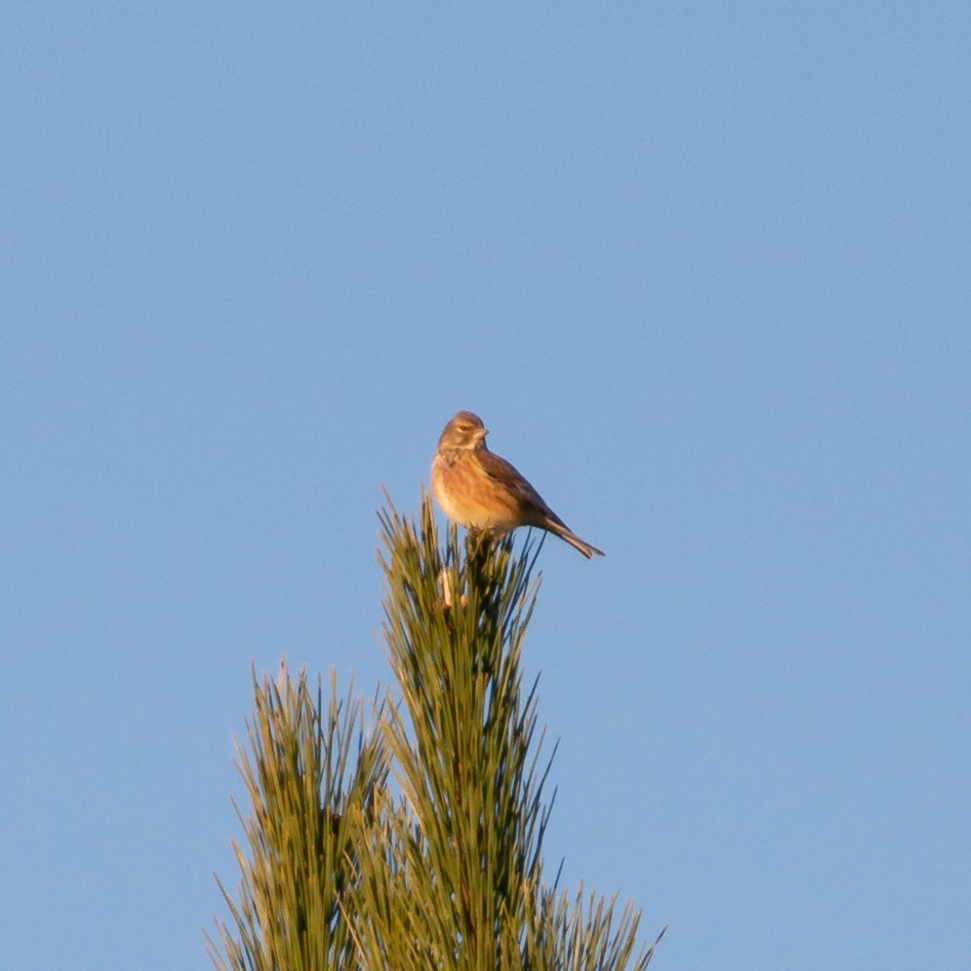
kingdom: Animalia
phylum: Chordata
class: Aves
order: Passeriformes
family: Fringillidae
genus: Linaria
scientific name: Linaria cannabina
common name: Common linnet
